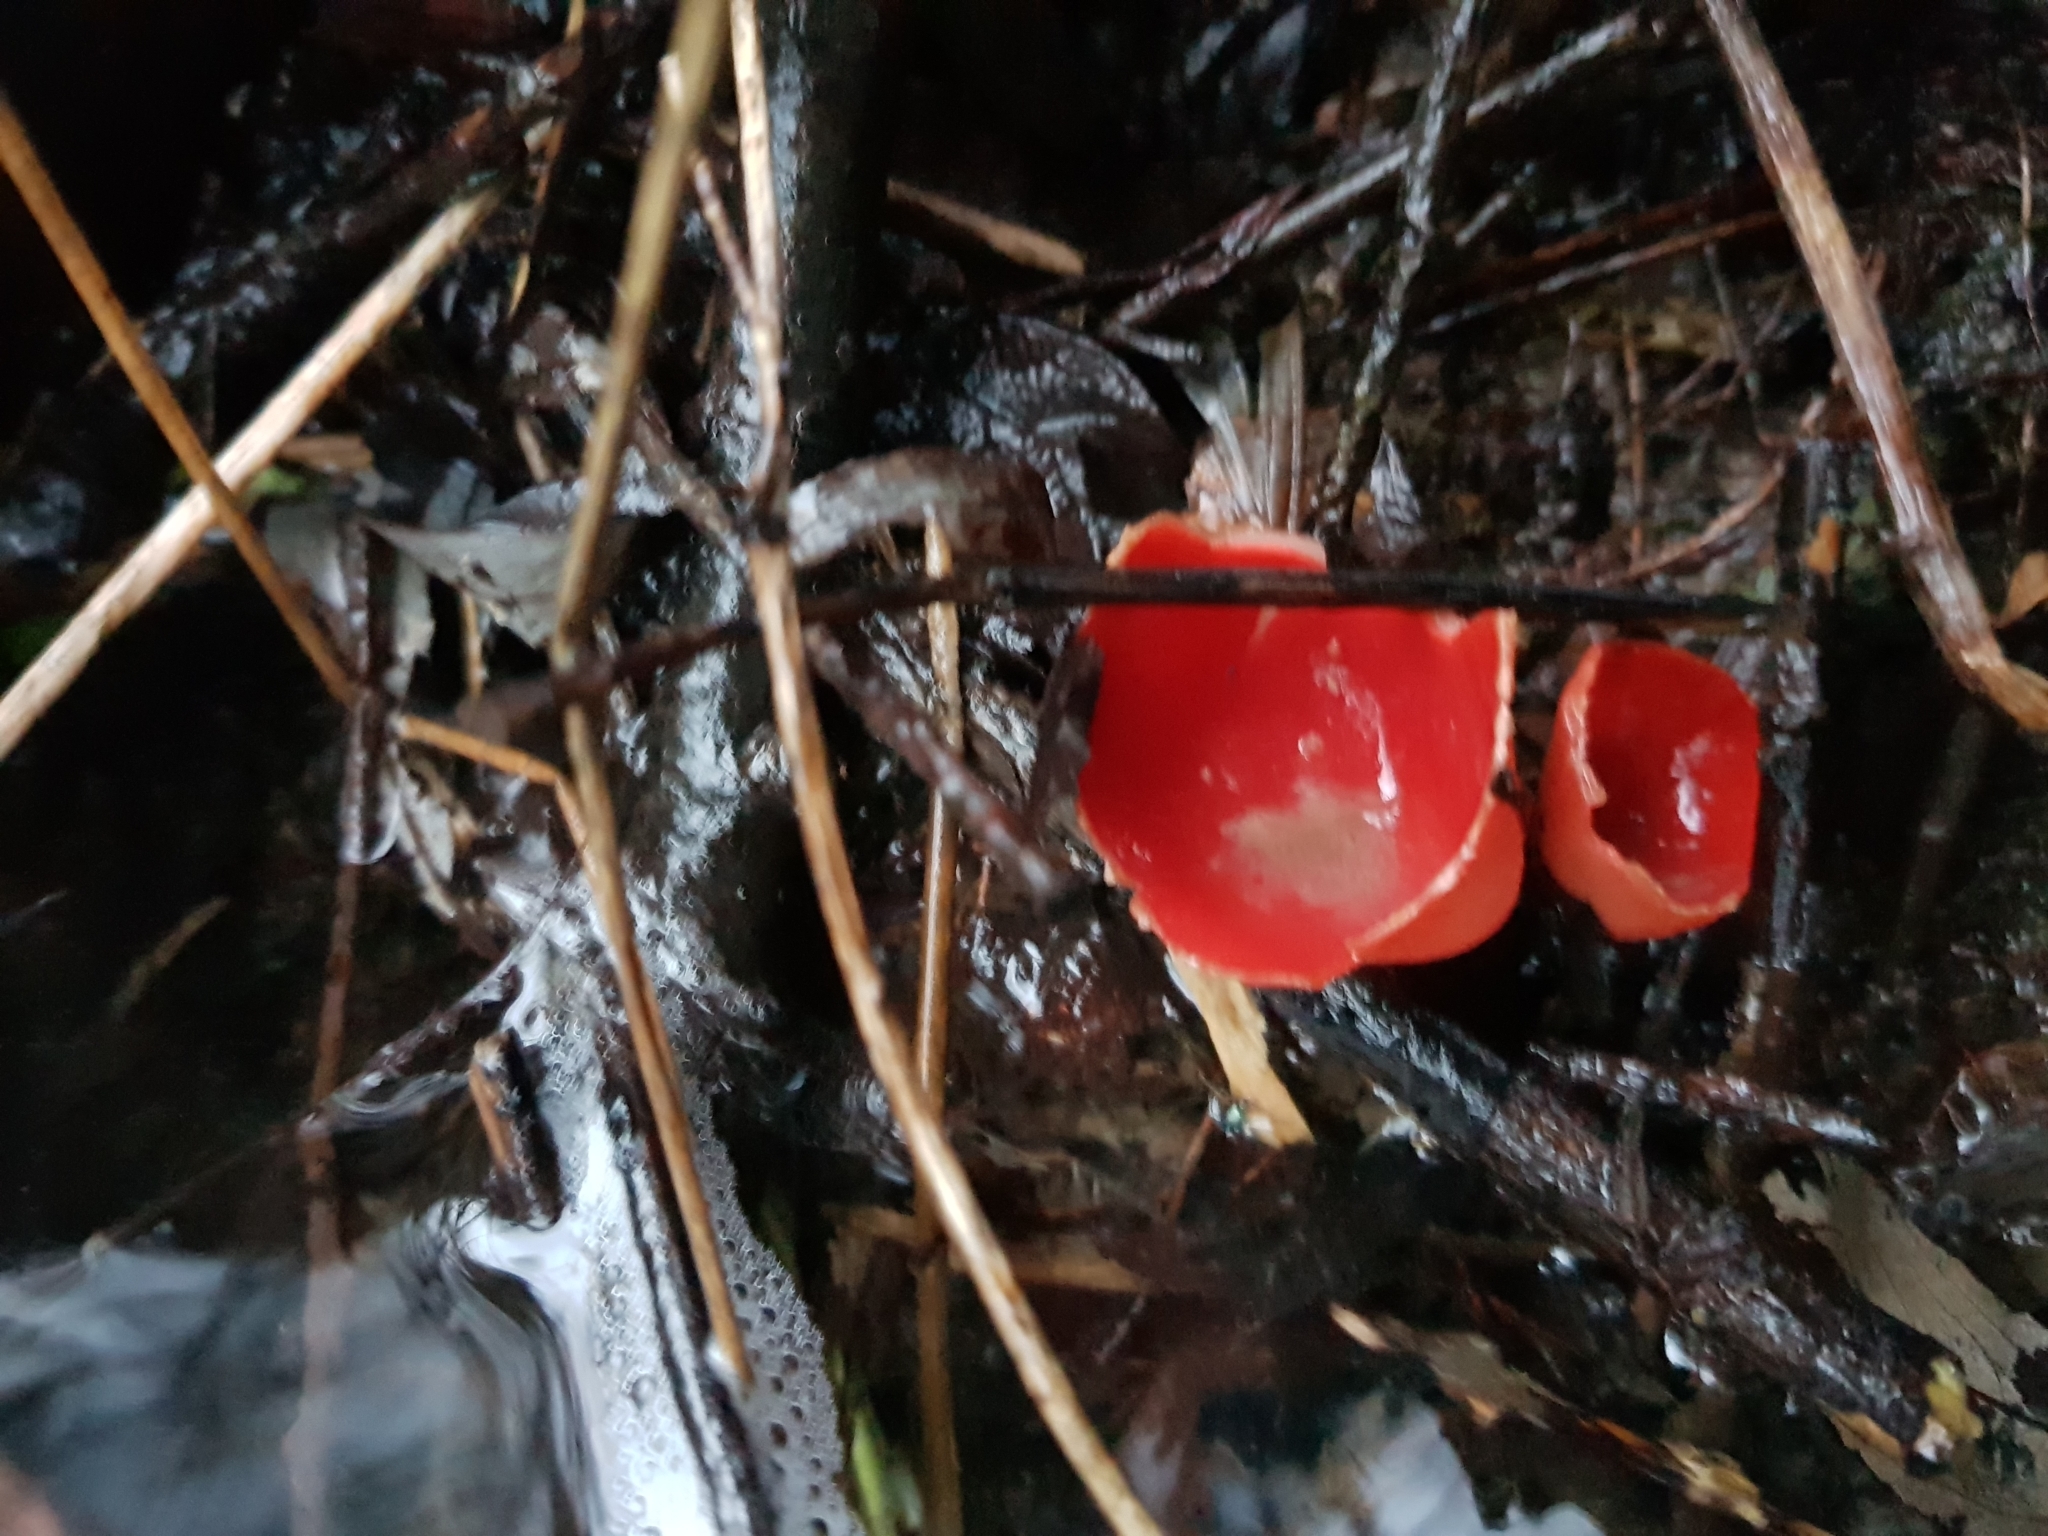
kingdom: Fungi
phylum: Ascomycota
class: Pezizomycetes
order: Pezizales
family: Sarcoscyphaceae
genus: Sarcoscypha
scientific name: Sarcoscypha
